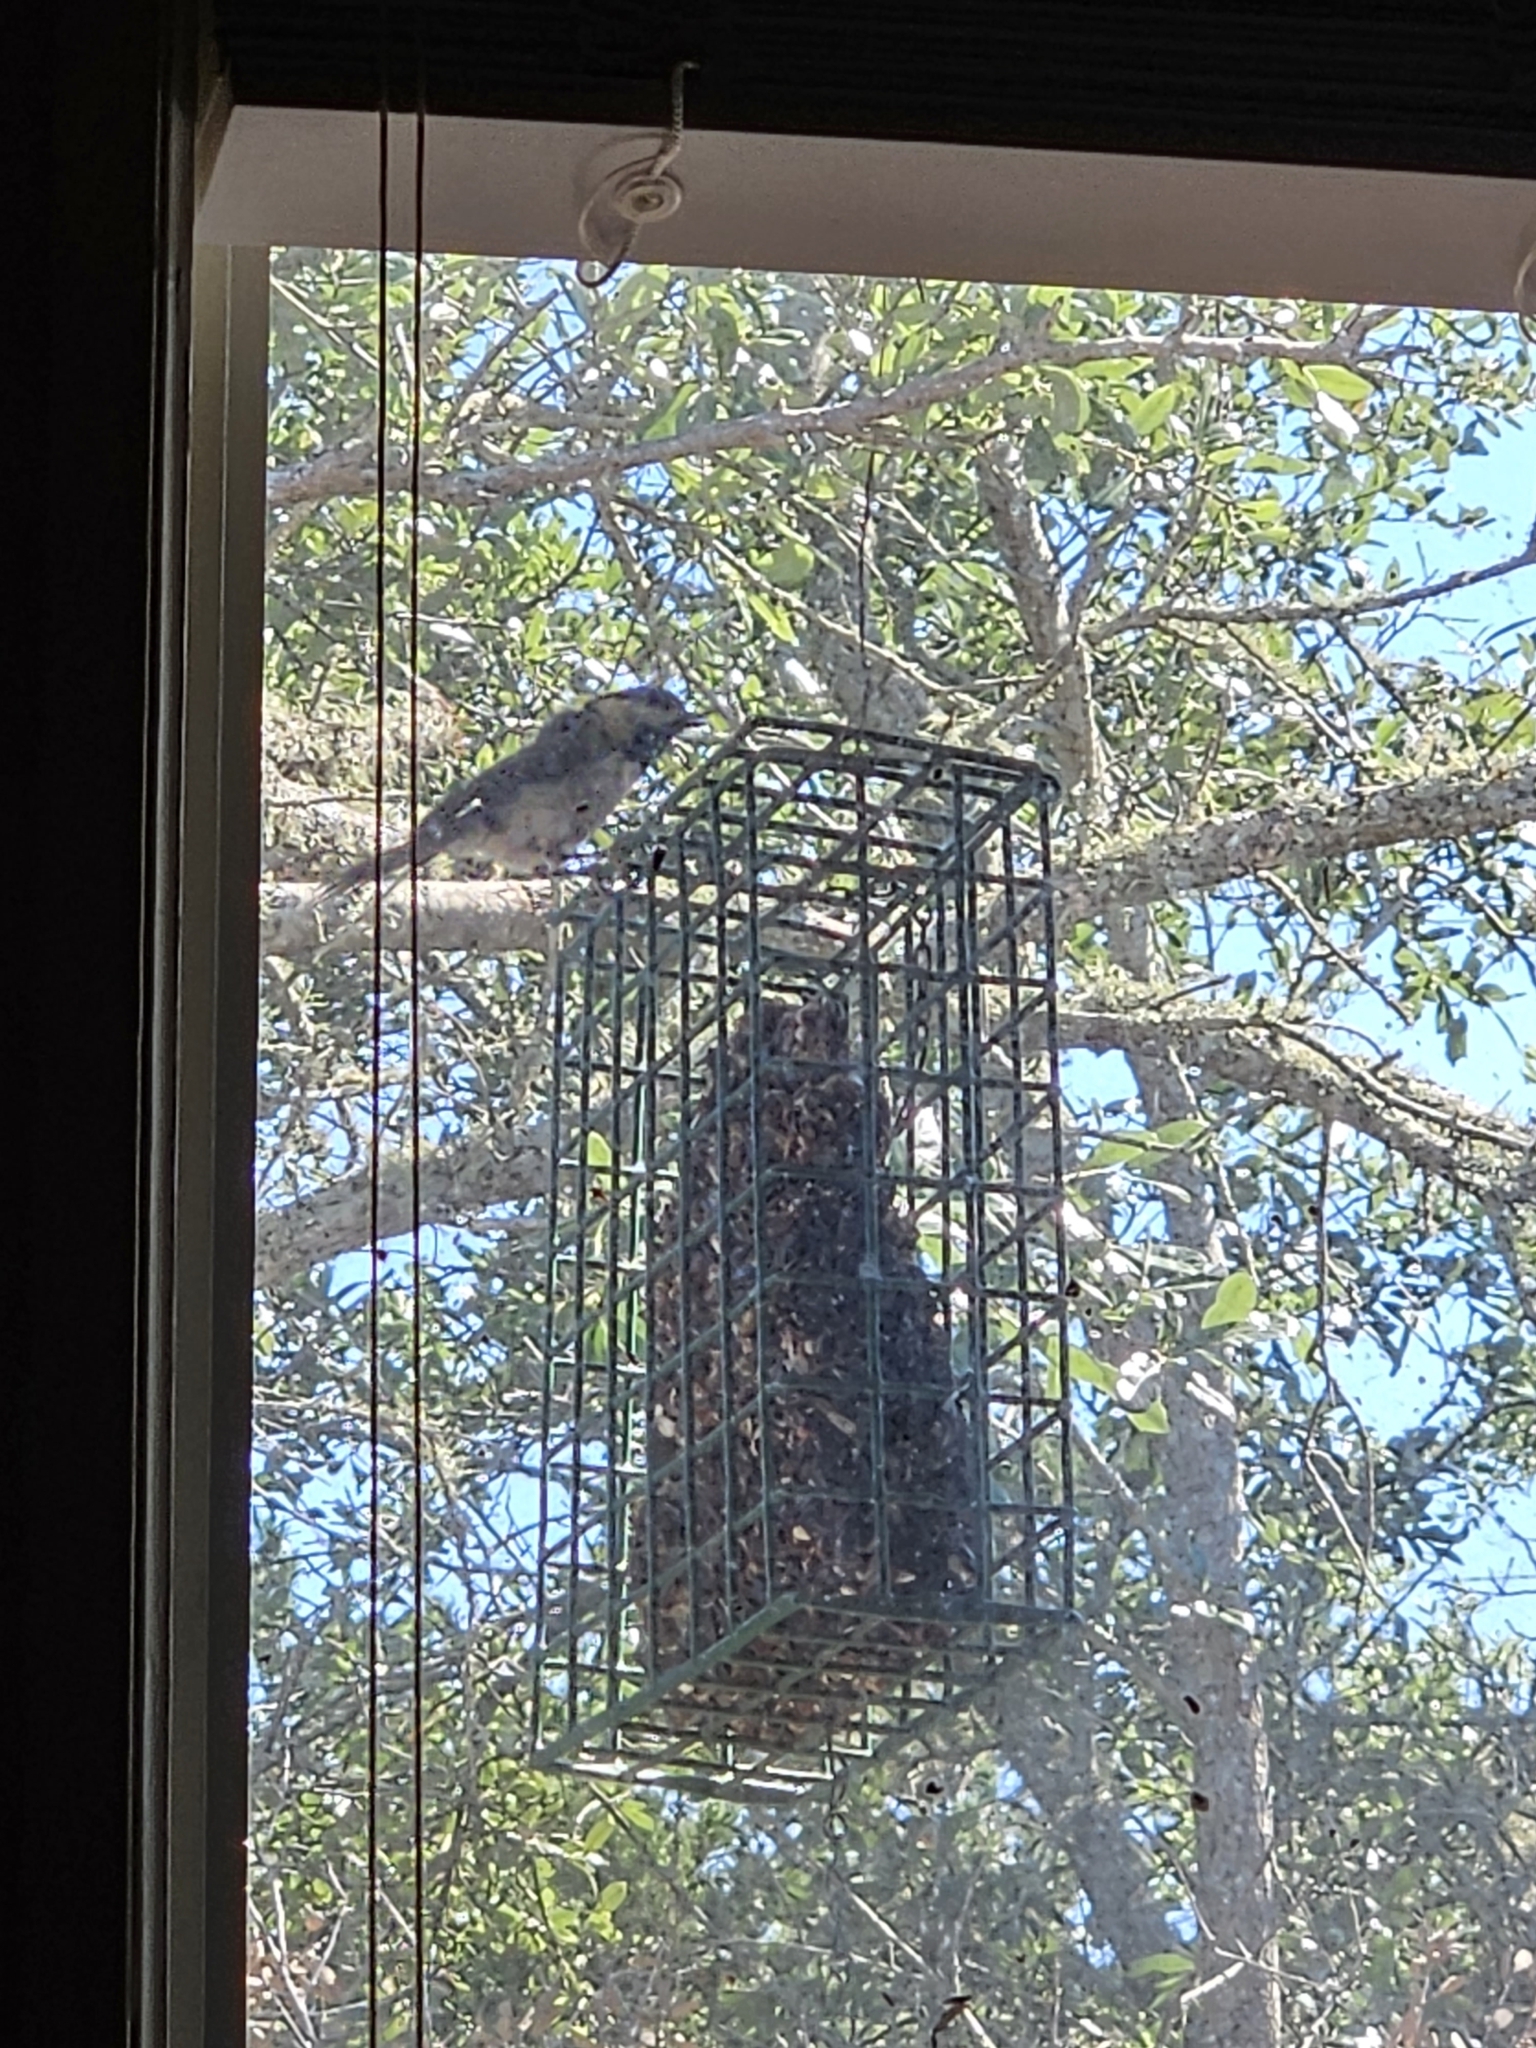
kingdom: Animalia
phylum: Chordata
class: Aves
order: Passeriformes
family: Paridae
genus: Poecile
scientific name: Poecile carolinensis
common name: Carolina chickadee
